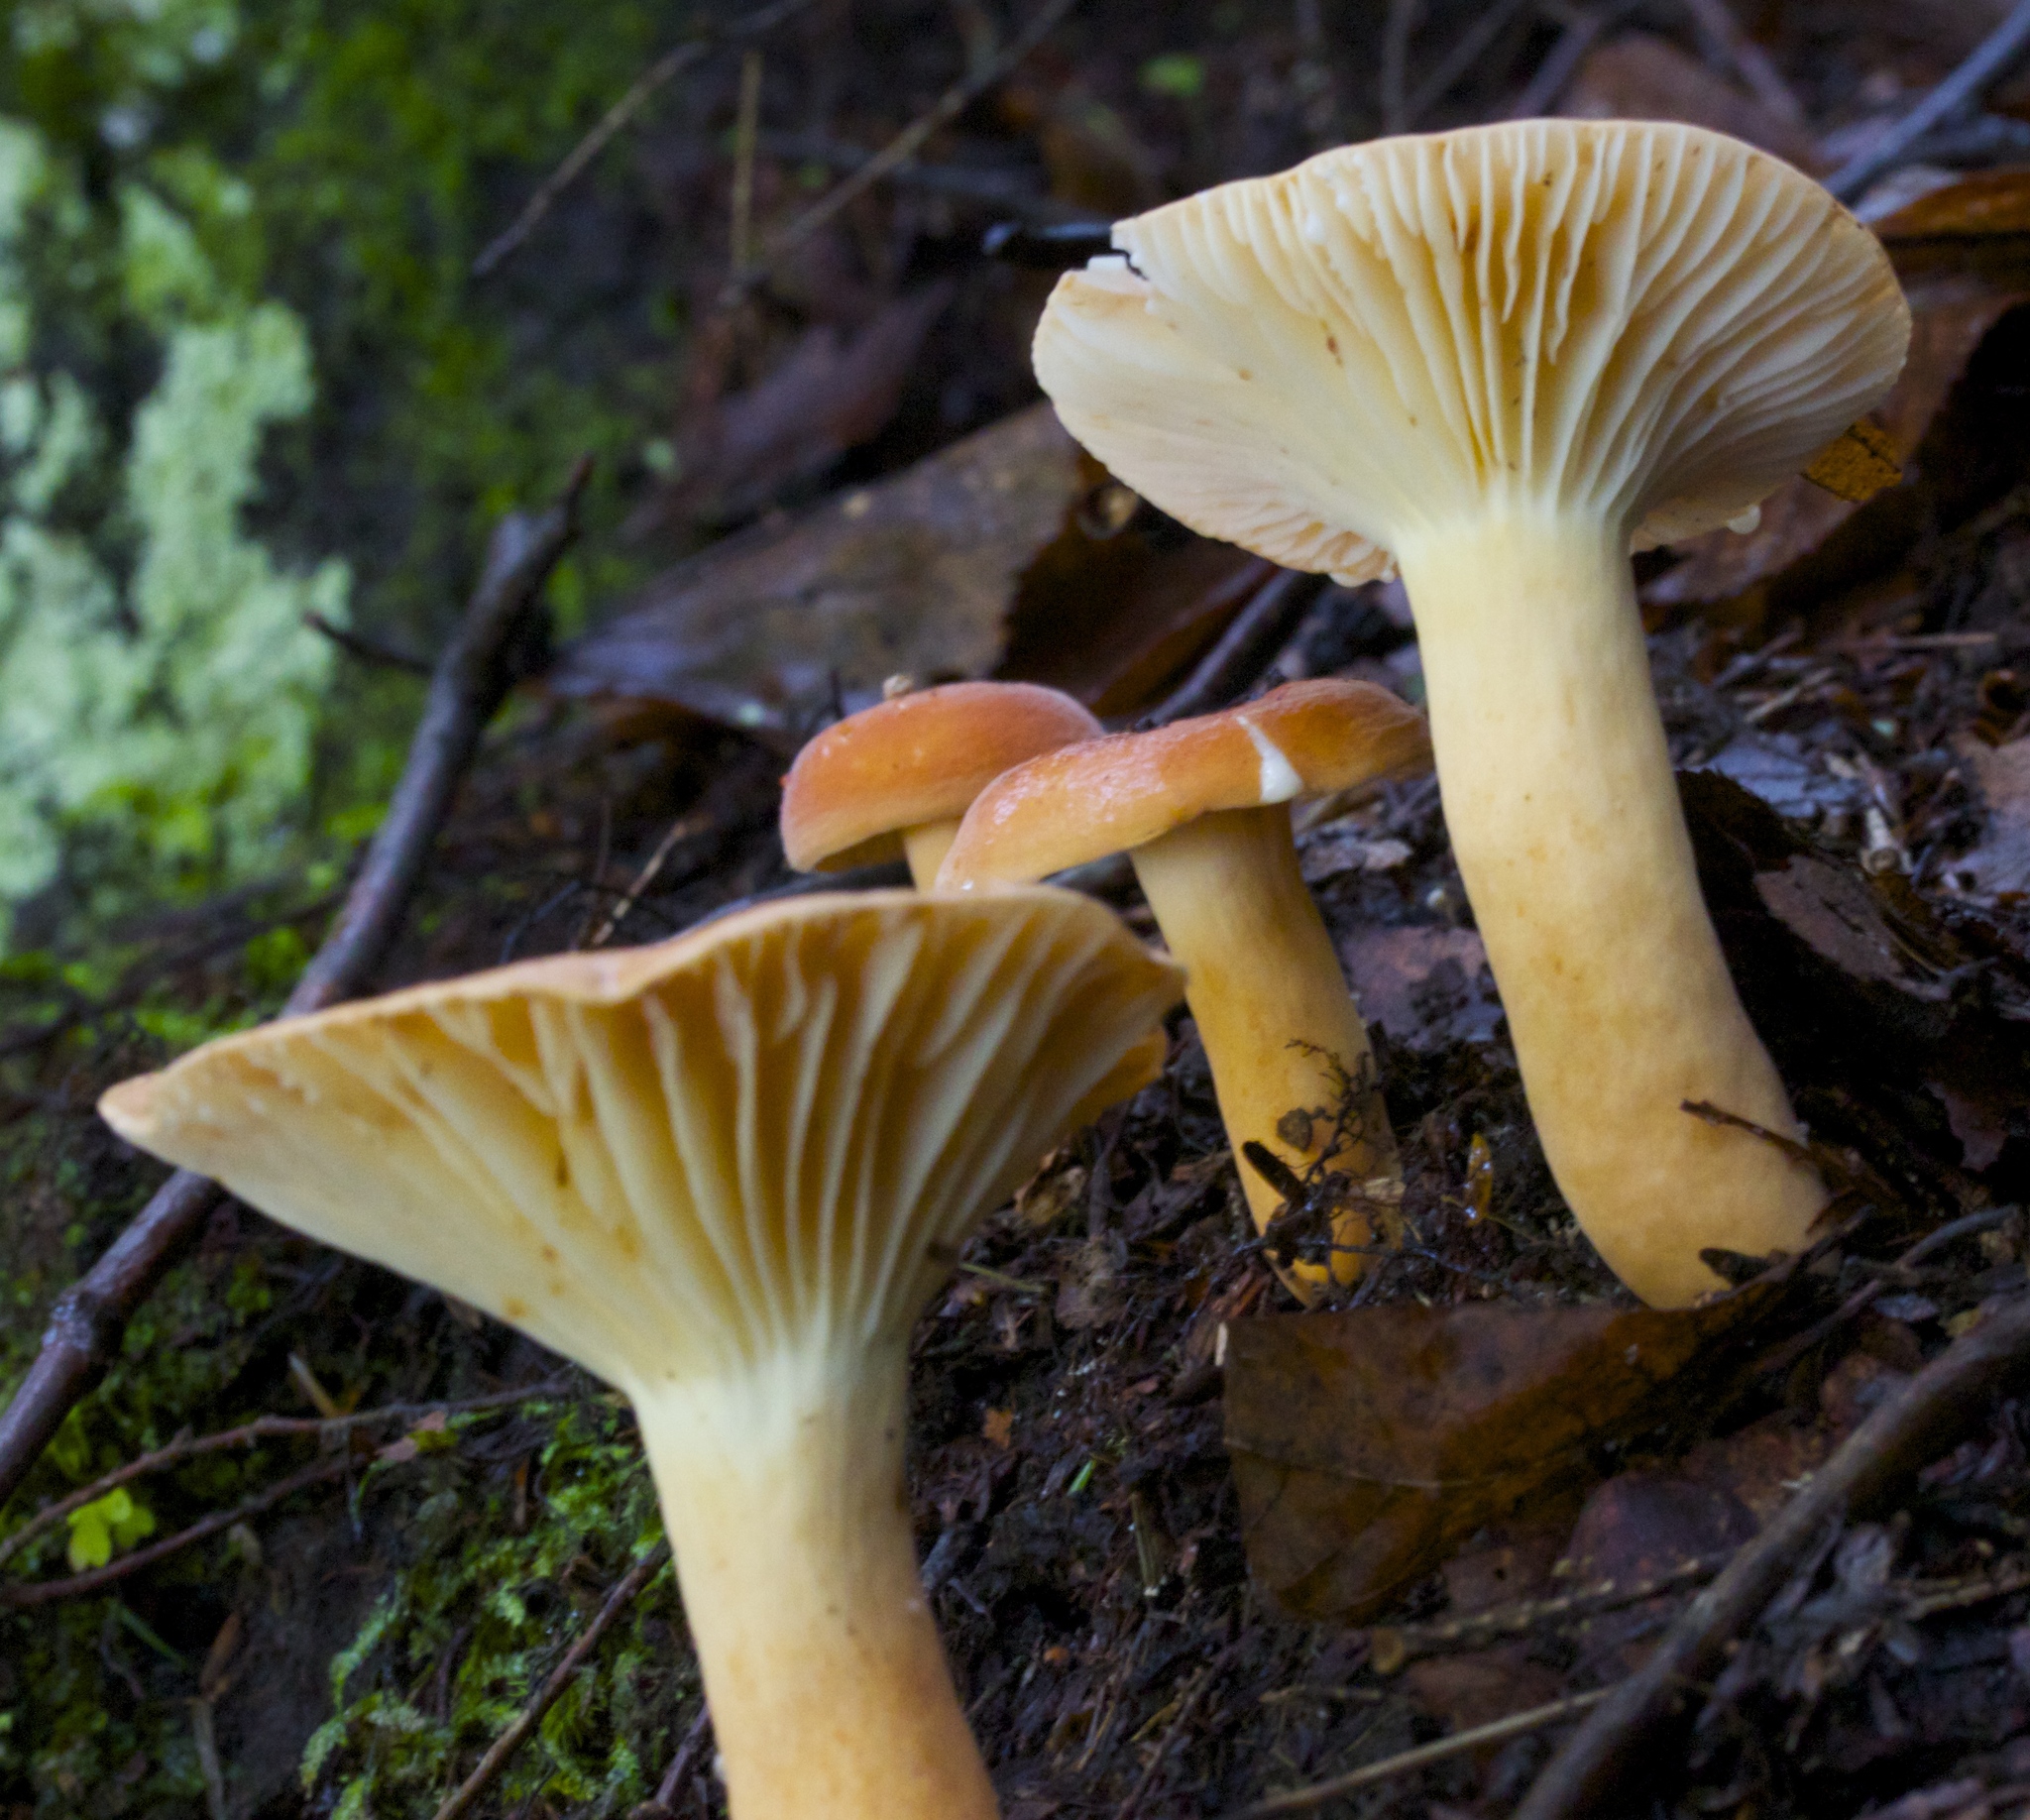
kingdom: Fungi
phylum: Basidiomycota
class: Agaricomycetes
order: Russulales
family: Russulaceae
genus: Lactarius
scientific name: Lactarius hygrophoroides
